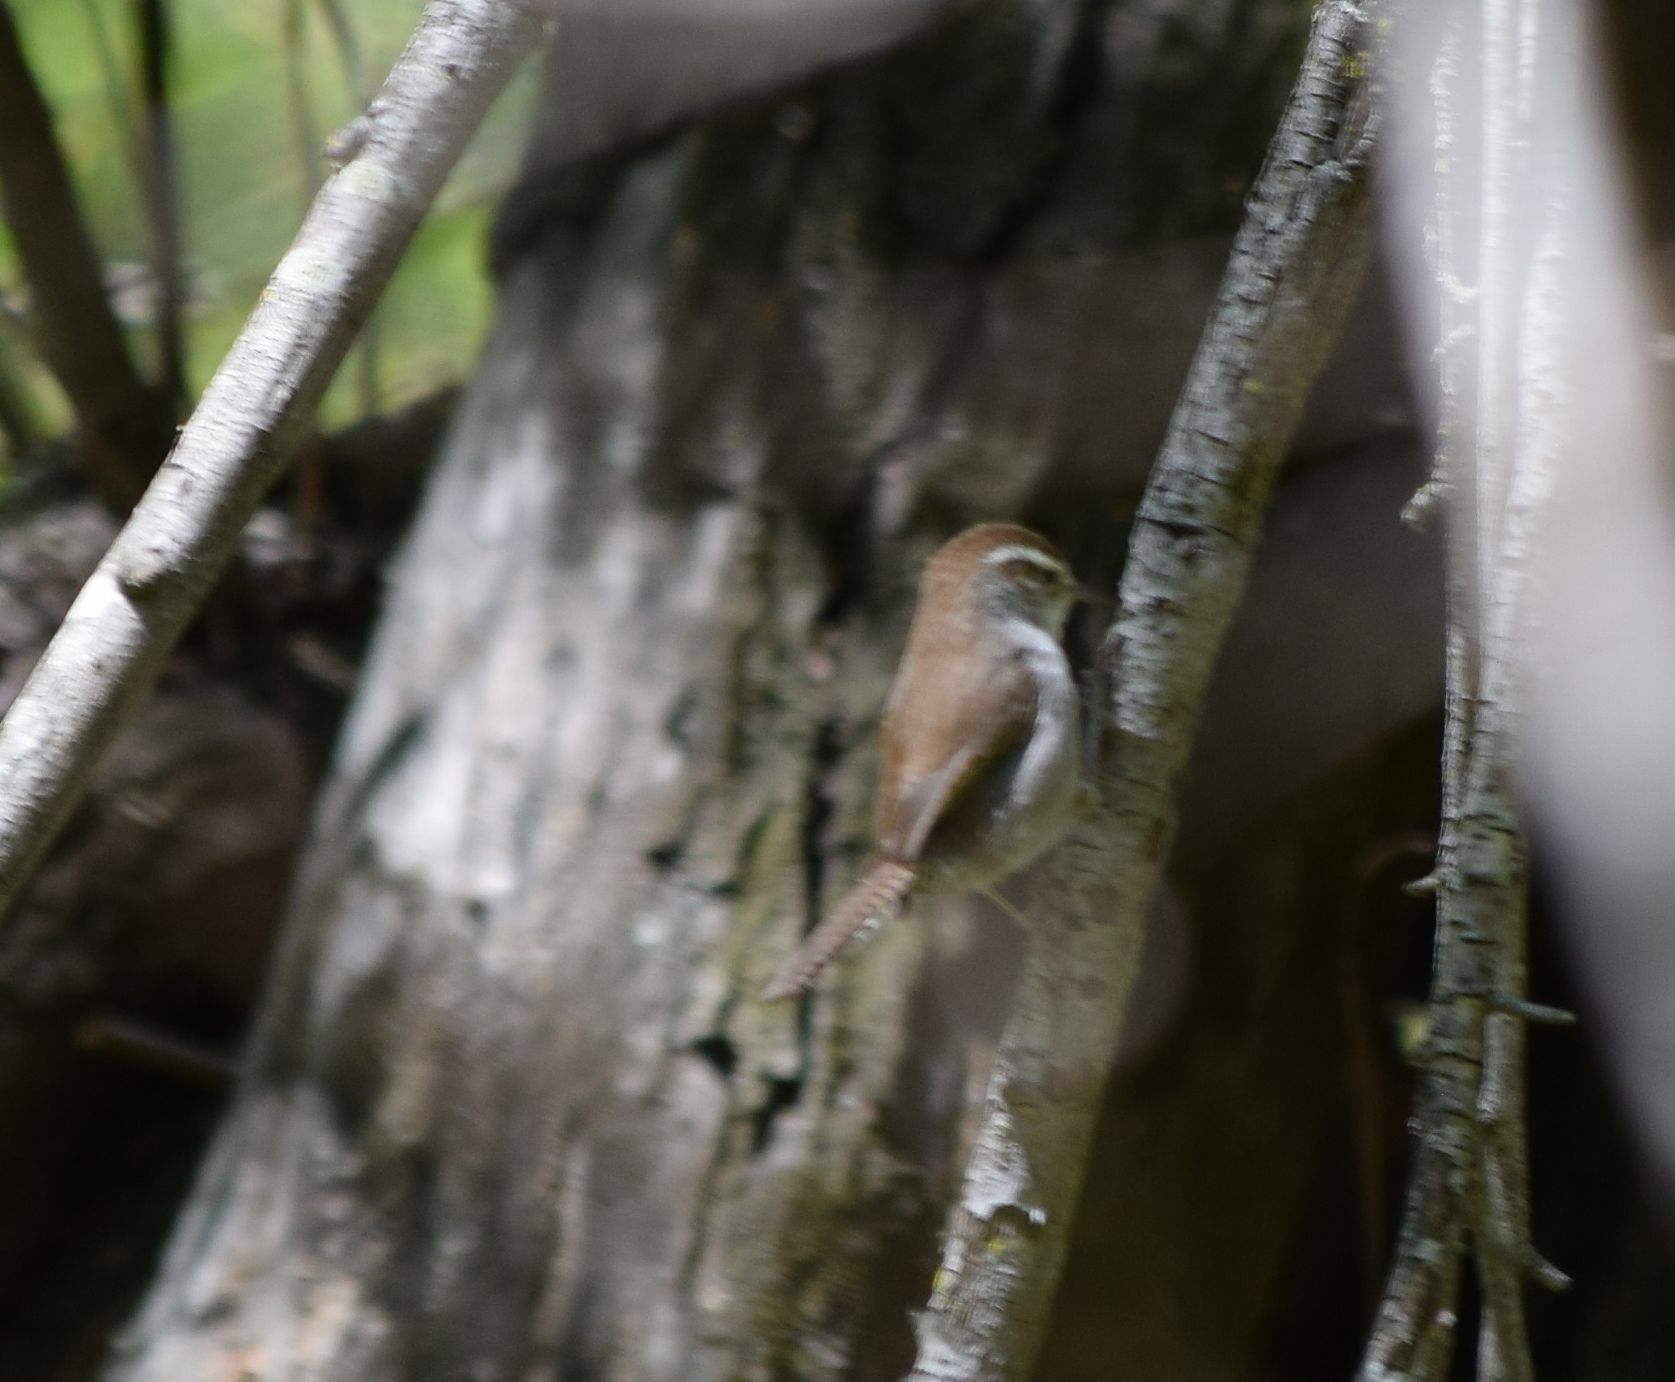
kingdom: Animalia
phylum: Chordata
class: Aves
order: Passeriformes
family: Troglodytidae
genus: Thryomanes
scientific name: Thryomanes bewickii
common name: Bewick's wren
